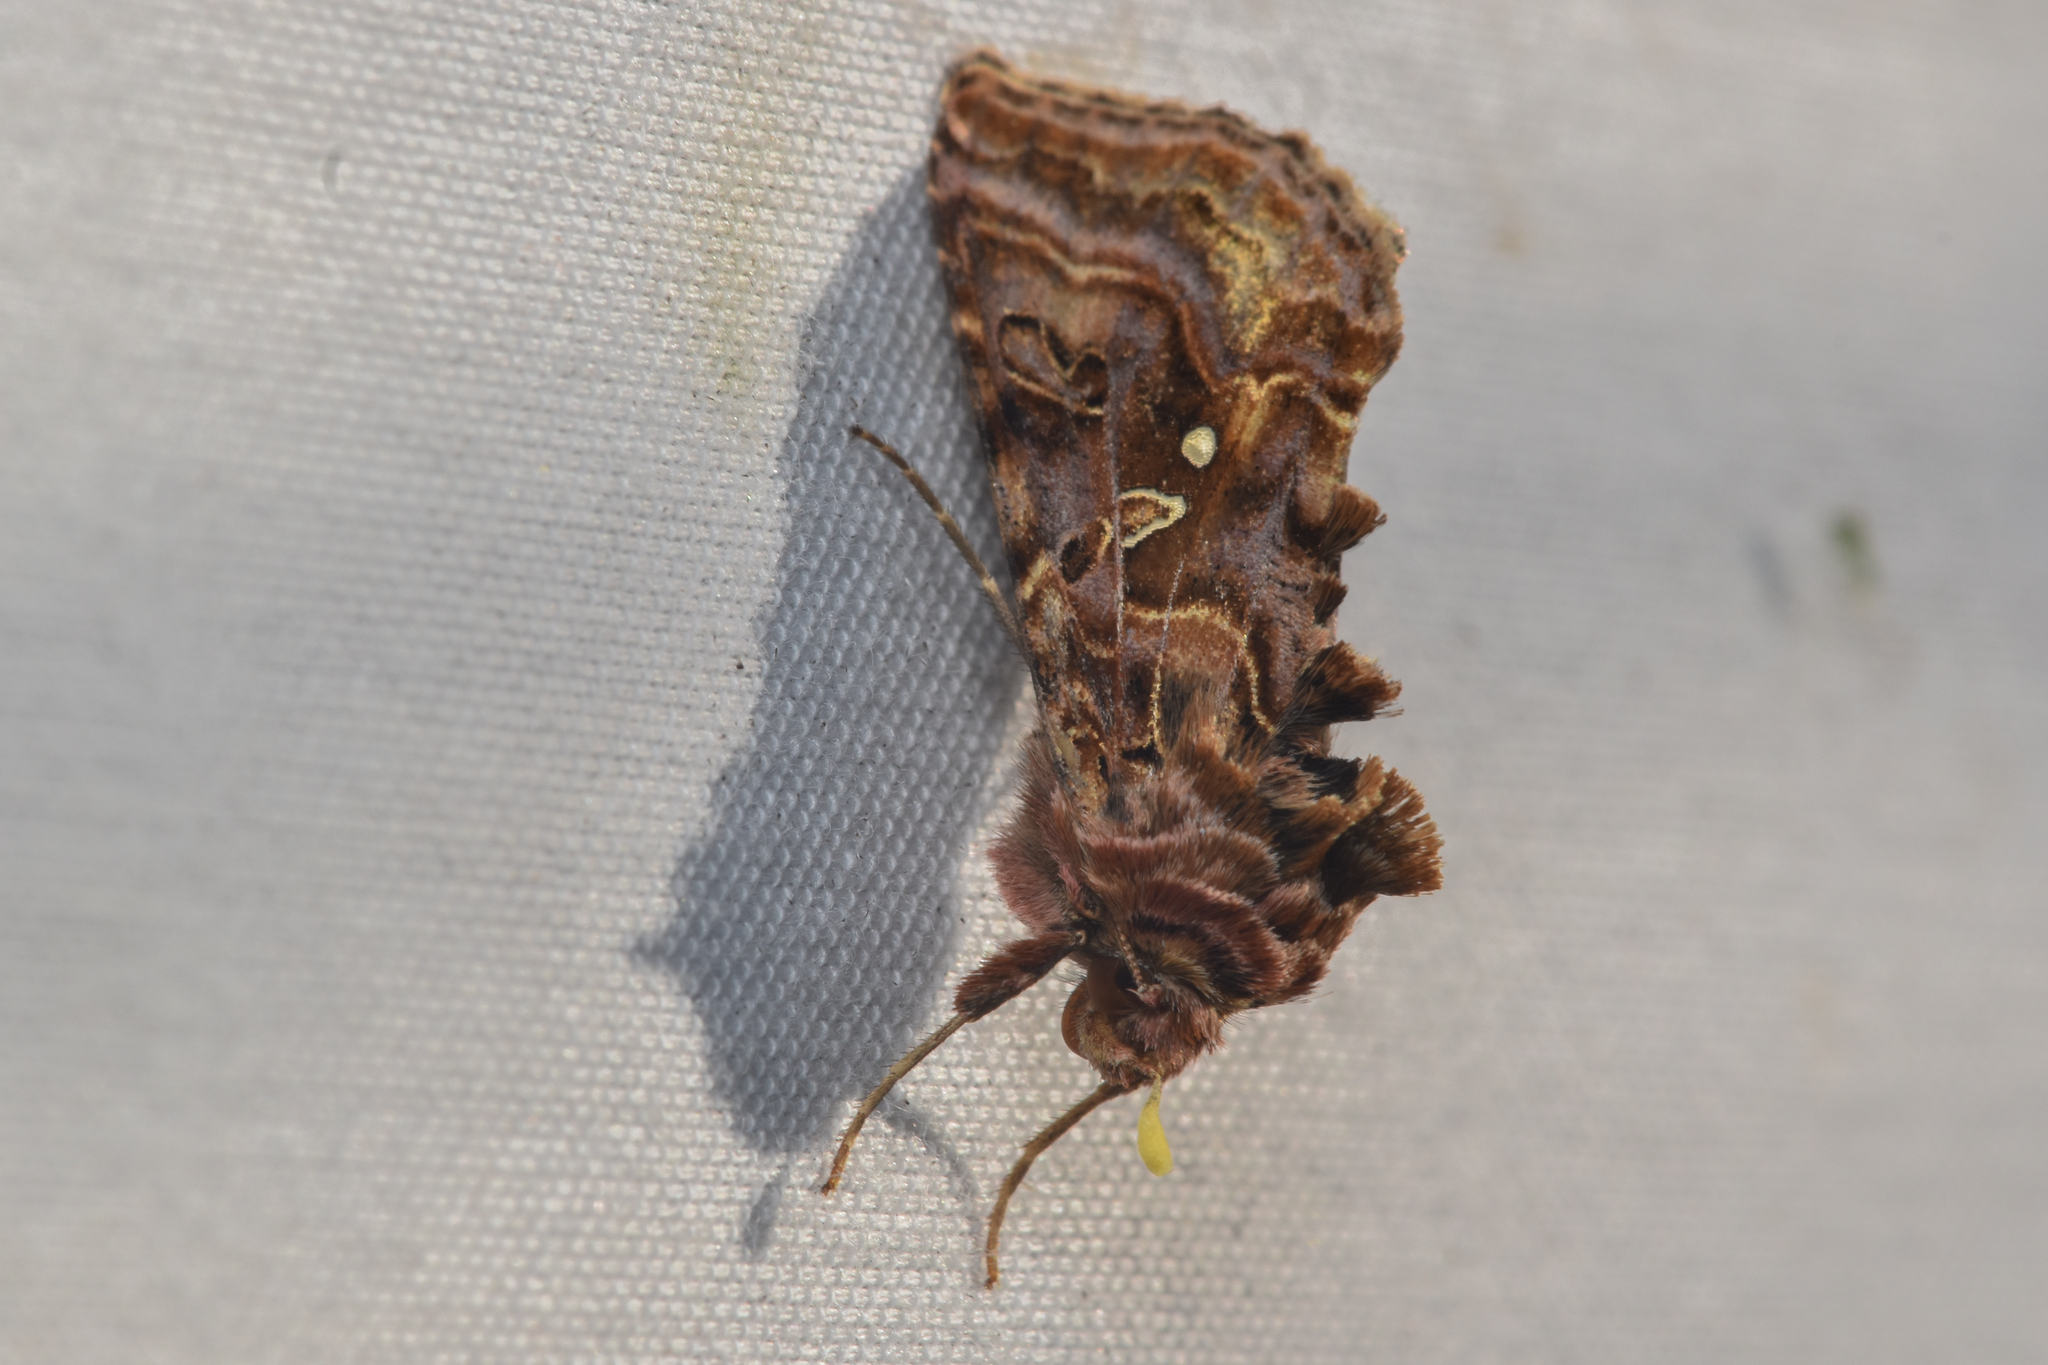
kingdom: Animalia
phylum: Arthropoda
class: Insecta
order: Lepidoptera
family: Noctuidae
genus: Autographa
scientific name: Autographa mappa
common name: Wavy chestnut y moth
